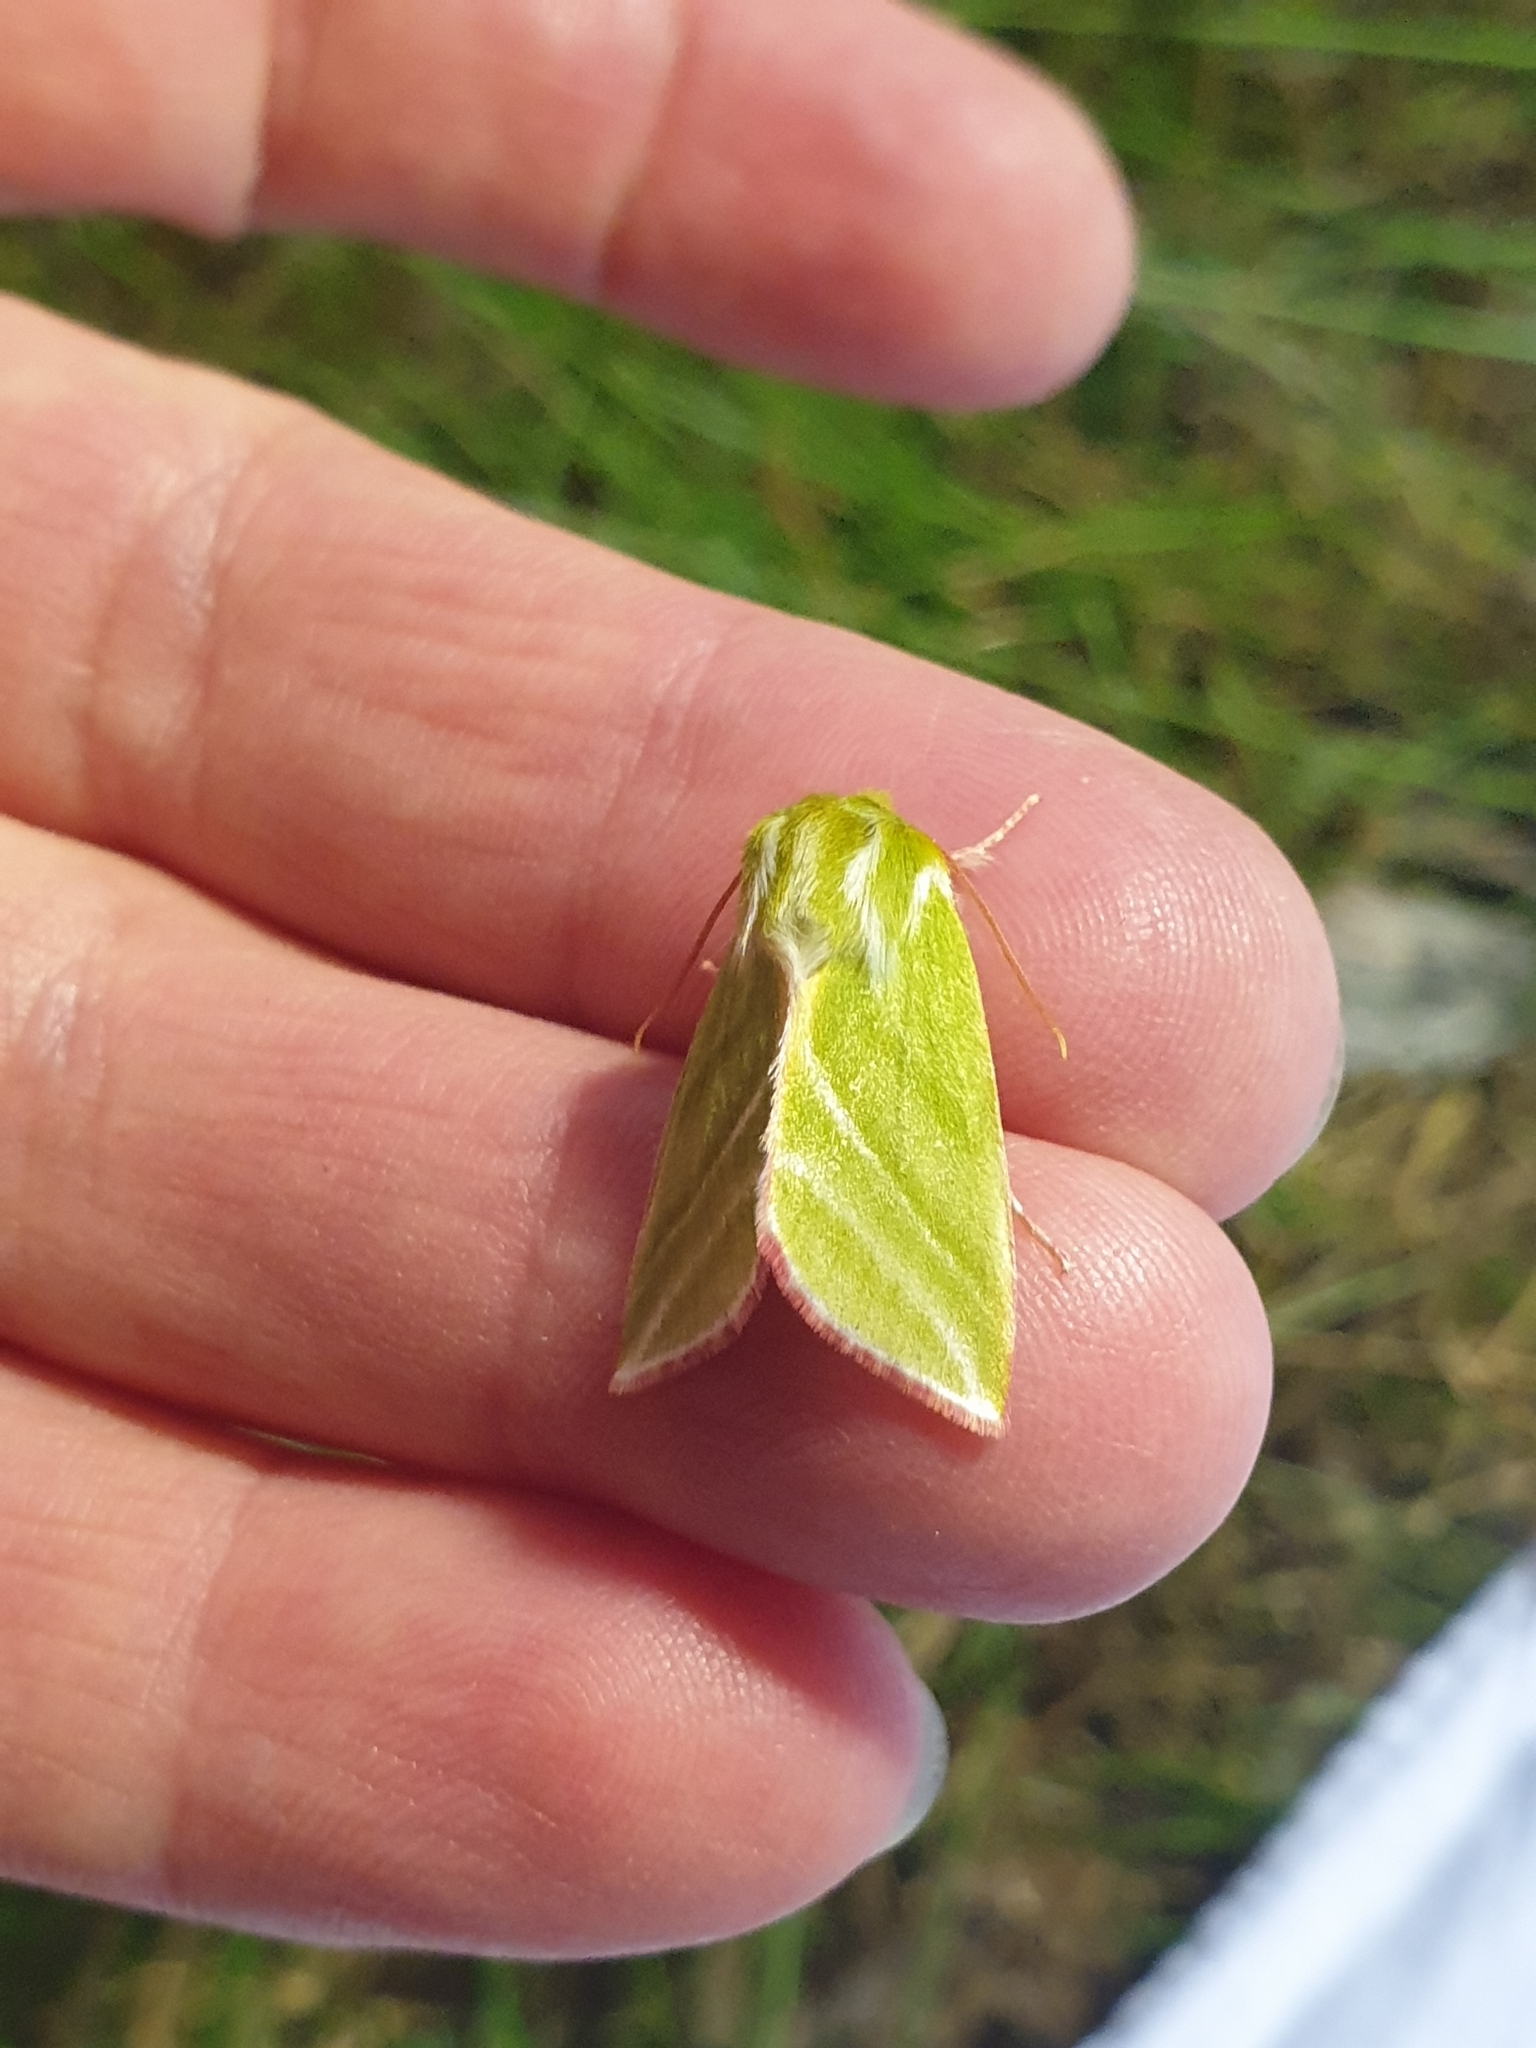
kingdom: Animalia
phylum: Arthropoda
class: Insecta
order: Lepidoptera
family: Nolidae
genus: Pseudoips
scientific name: Pseudoips prasinana
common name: Green silver-lines
